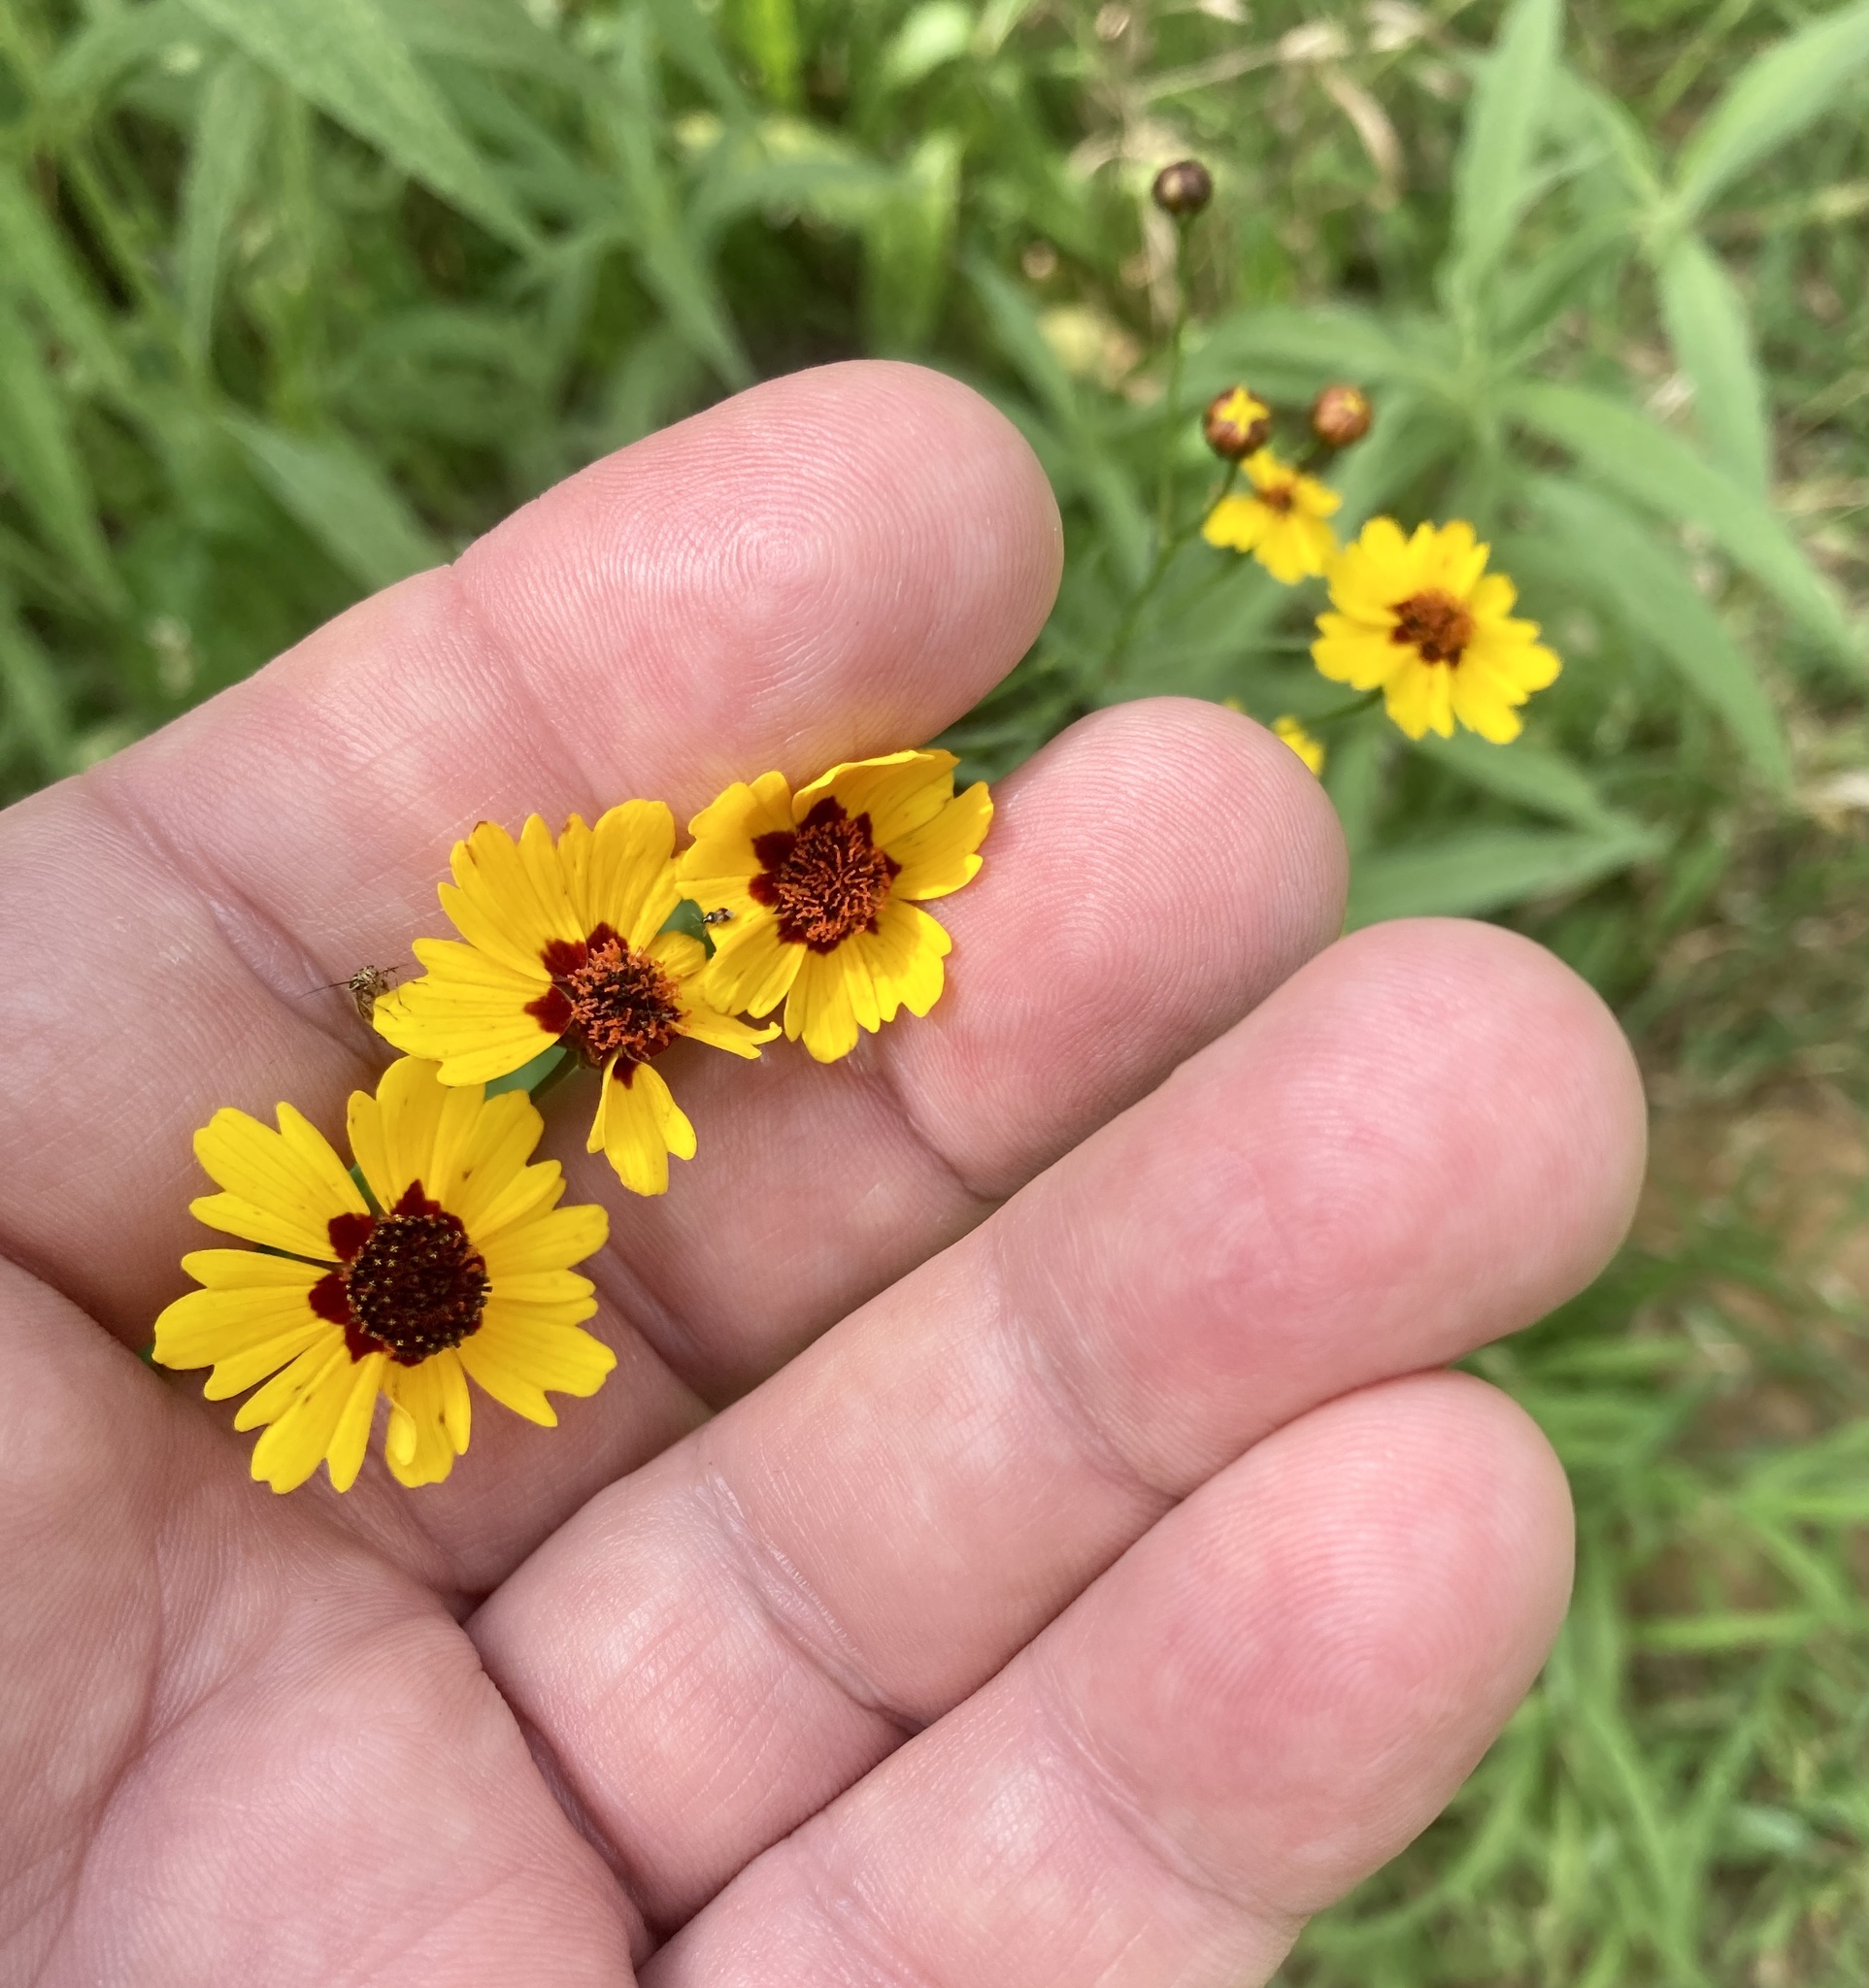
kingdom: Plantae
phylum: Tracheophyta
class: Magnoliopsida
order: Asterales
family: Asteraceae
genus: Coreopsis
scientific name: Coreopsis tinctoria
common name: Garden tickseed
